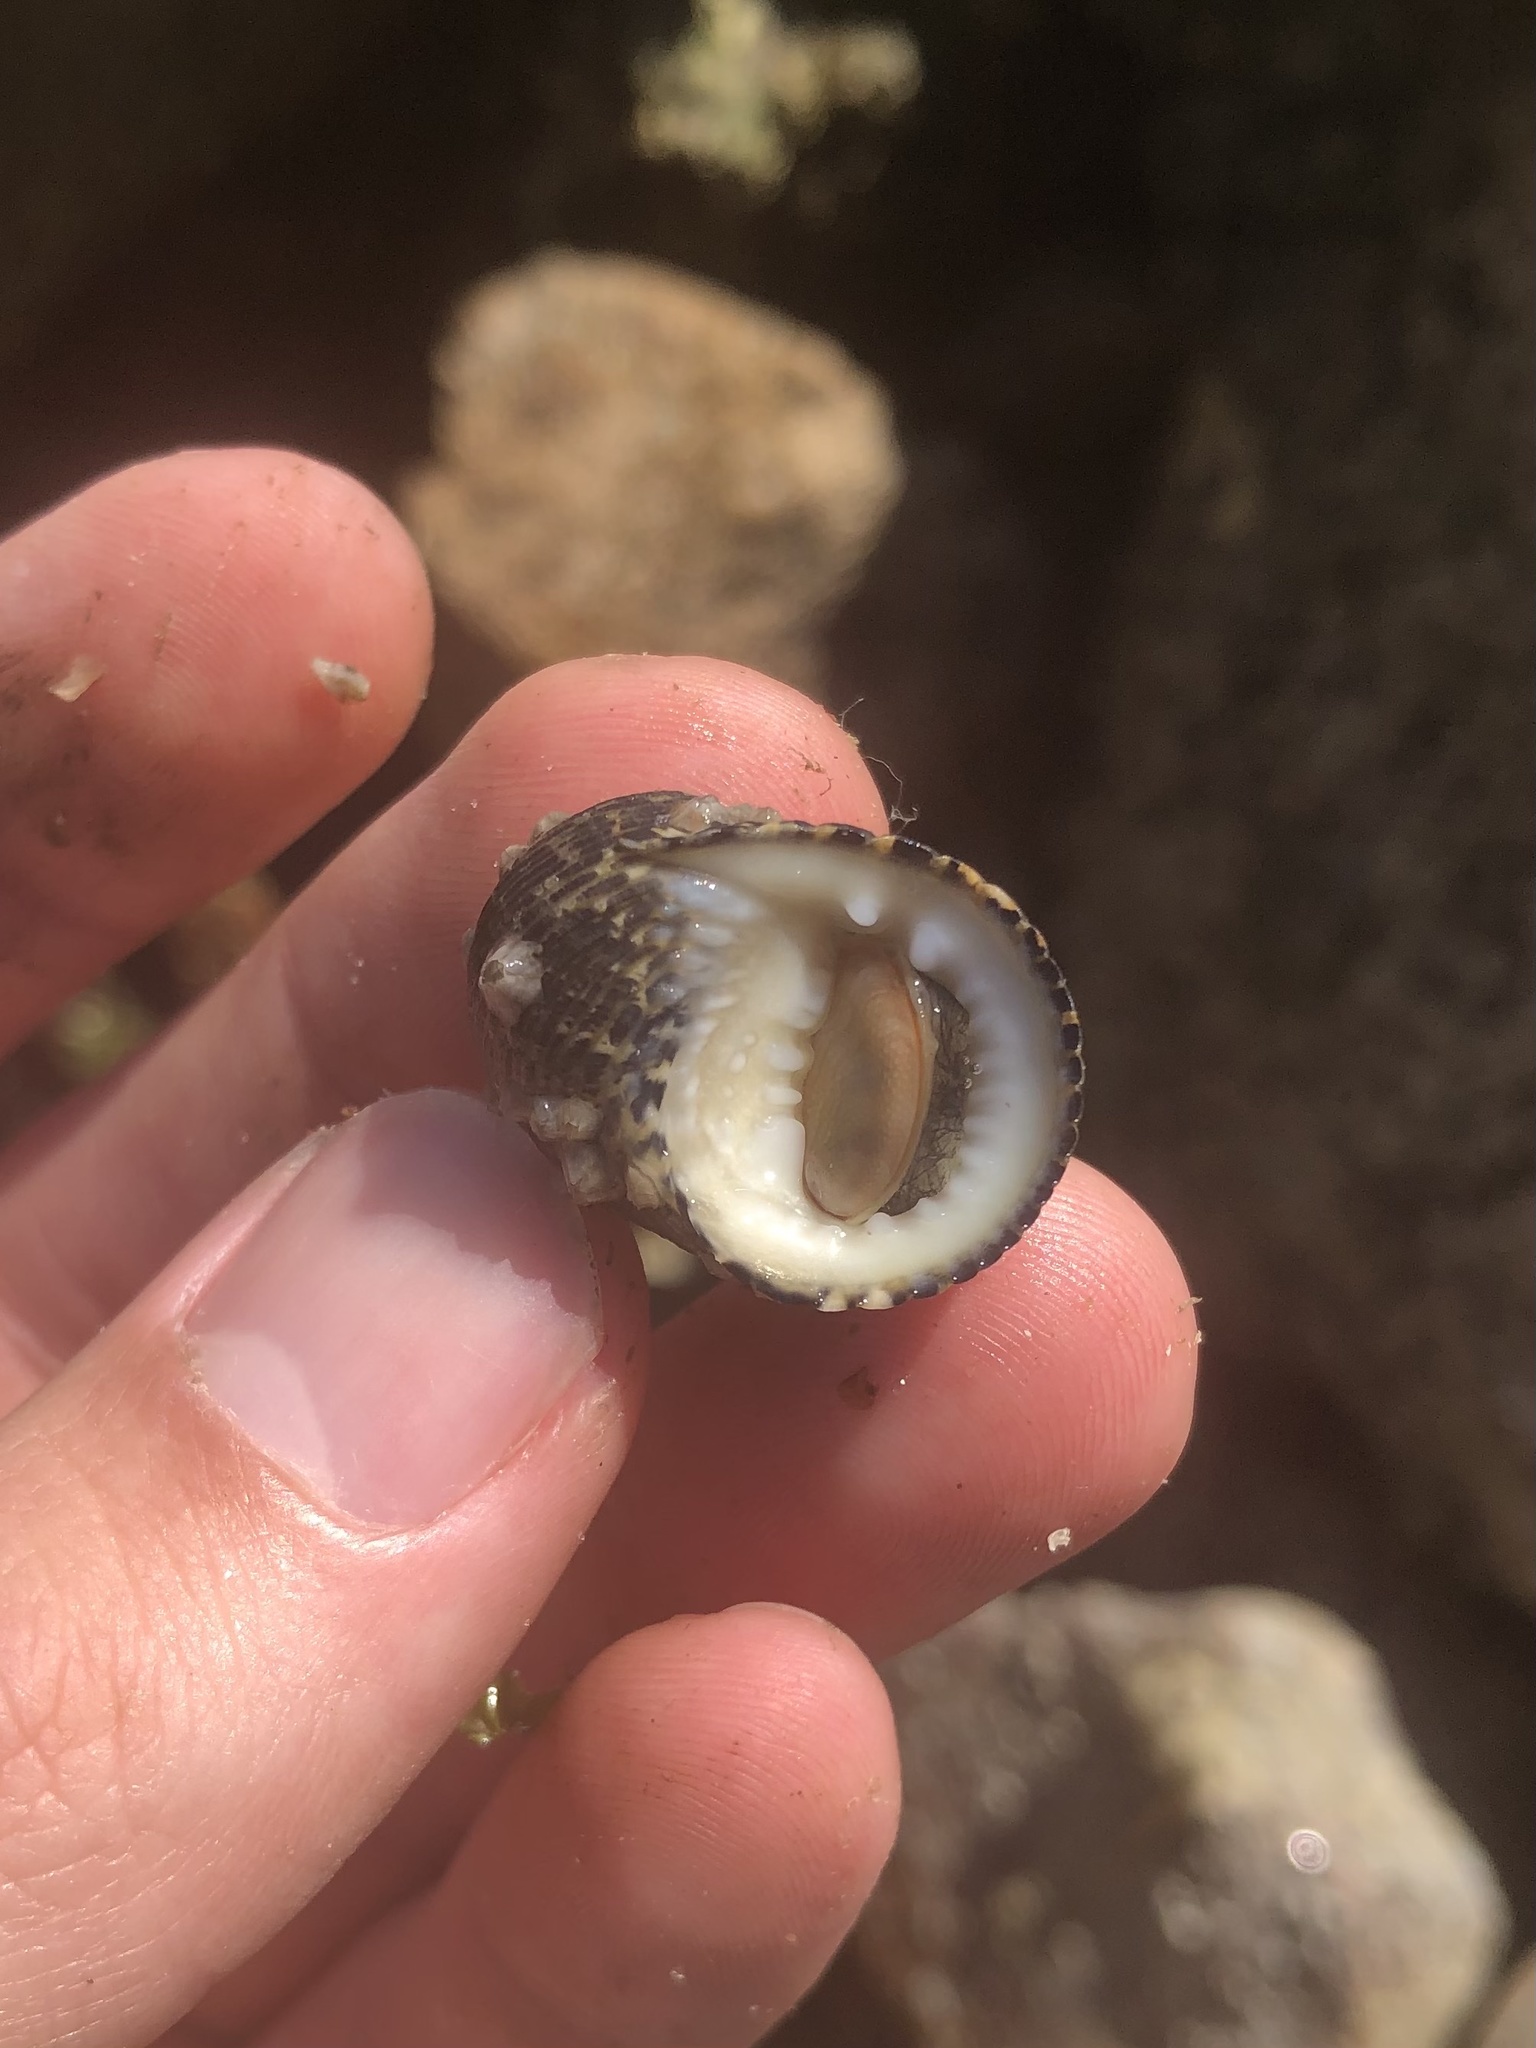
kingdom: Animalia
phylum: Mollusca
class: Gastropoda
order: Cycloneritida
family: Neritidae
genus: Nerita
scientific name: Nerita fulgurans
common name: Antillean nerite
